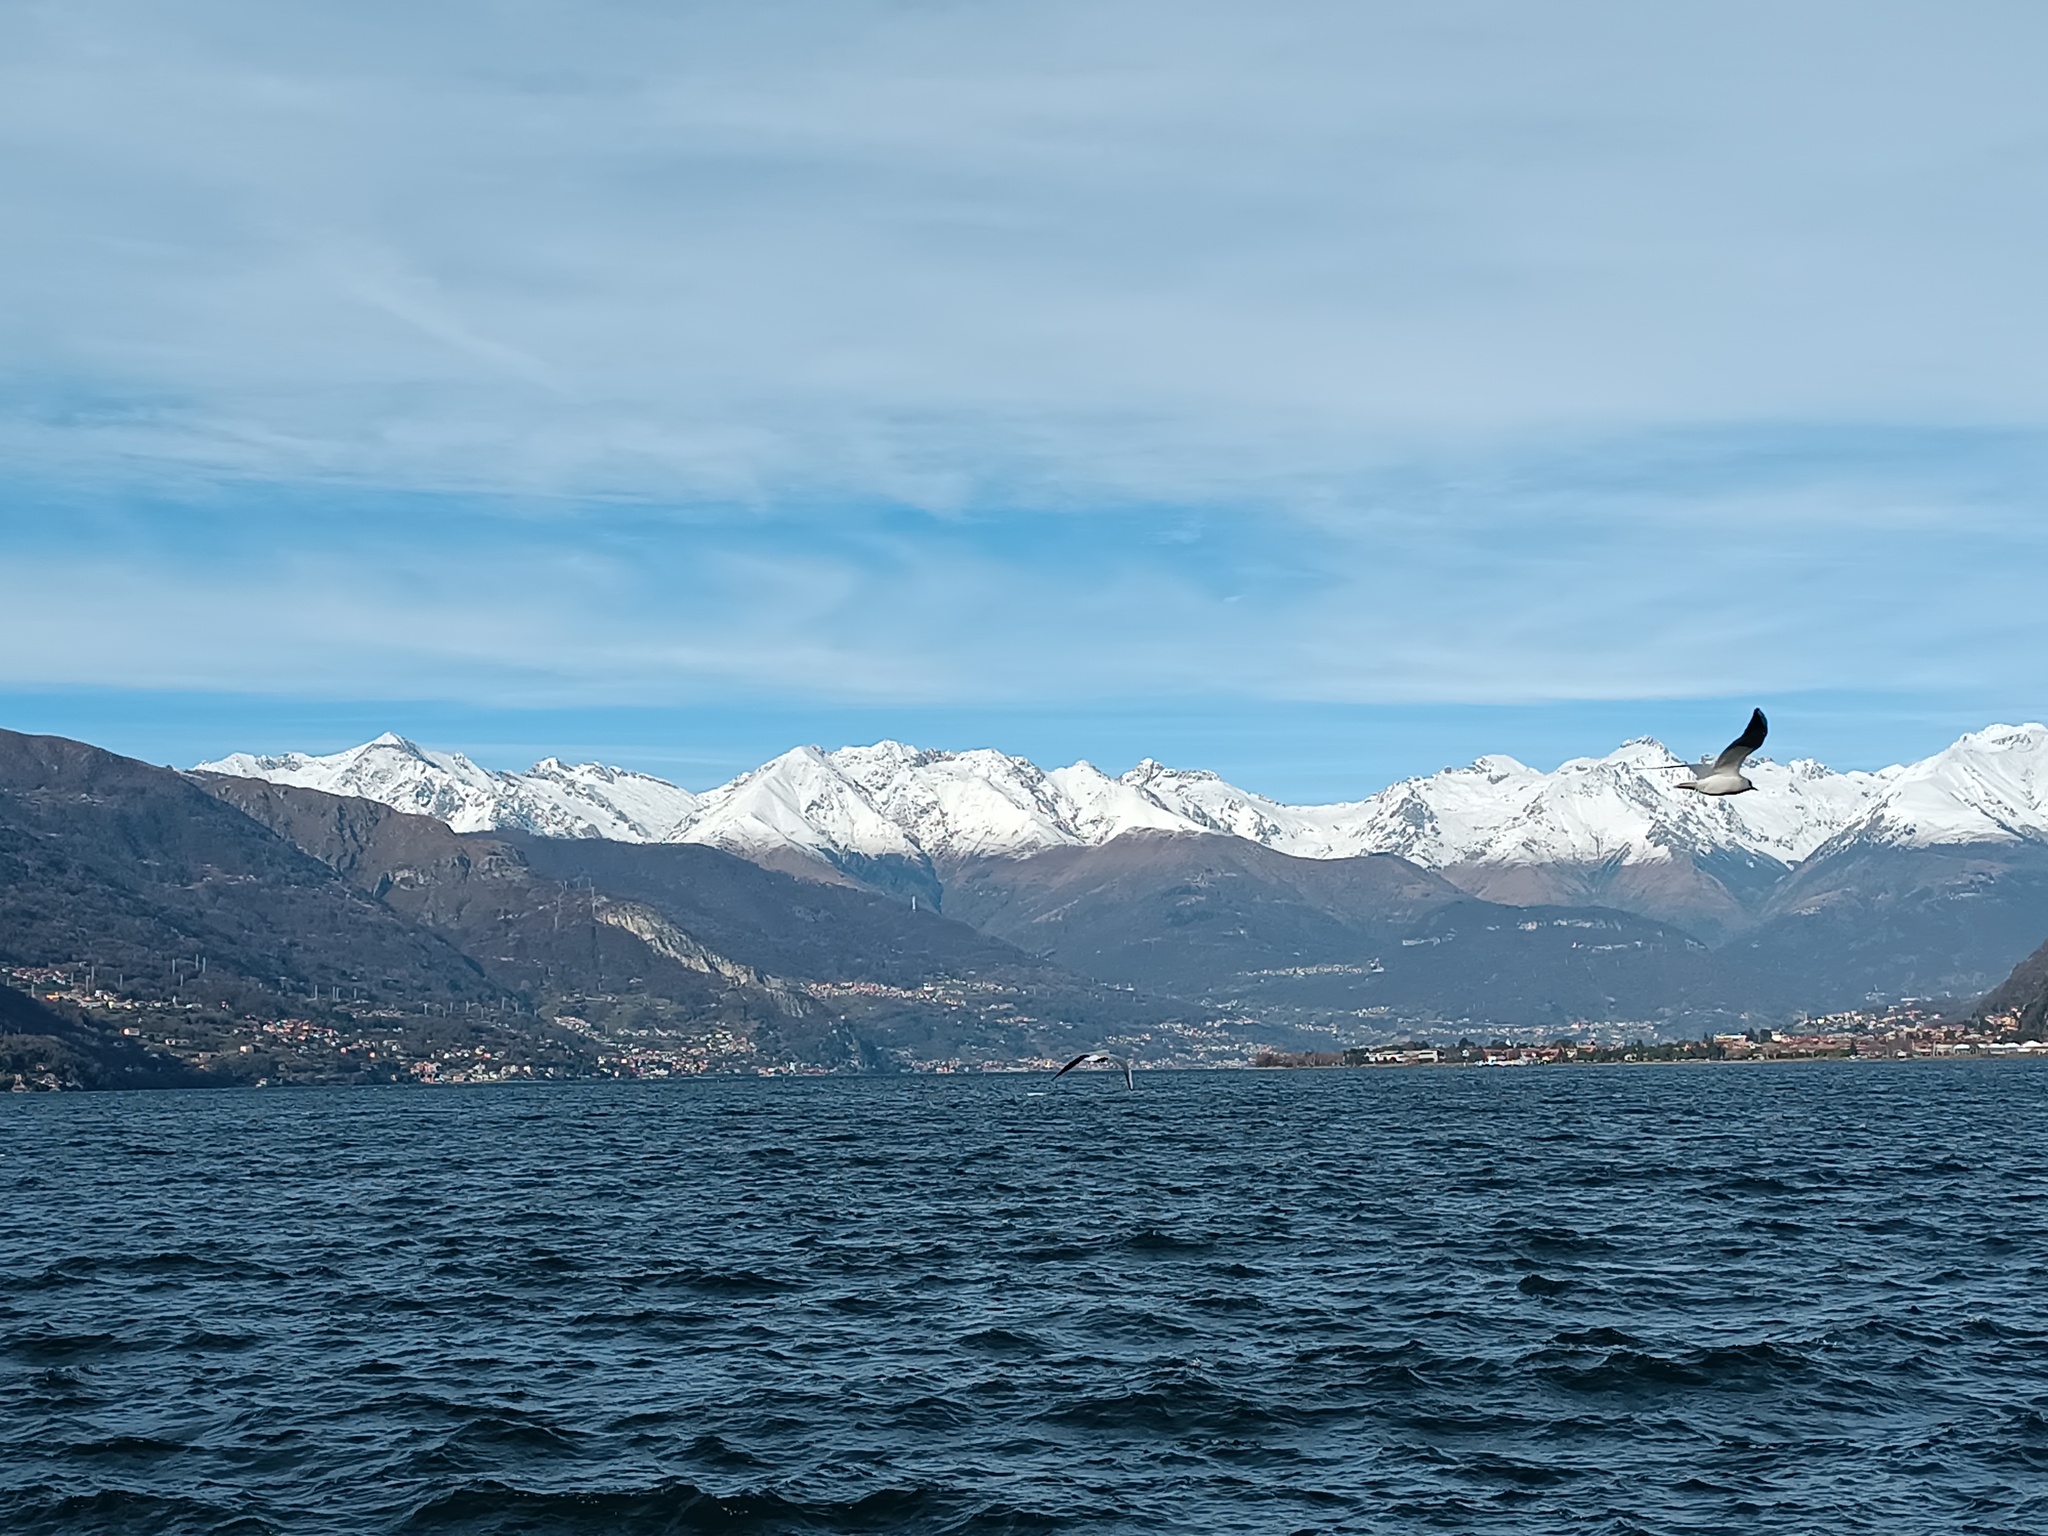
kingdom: Animalia
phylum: Chordata
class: Aves
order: Charadriiformes
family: Laridae
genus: Chroicocephalus
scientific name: Chroicocephalus ridibundus
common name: Black-headed gull
